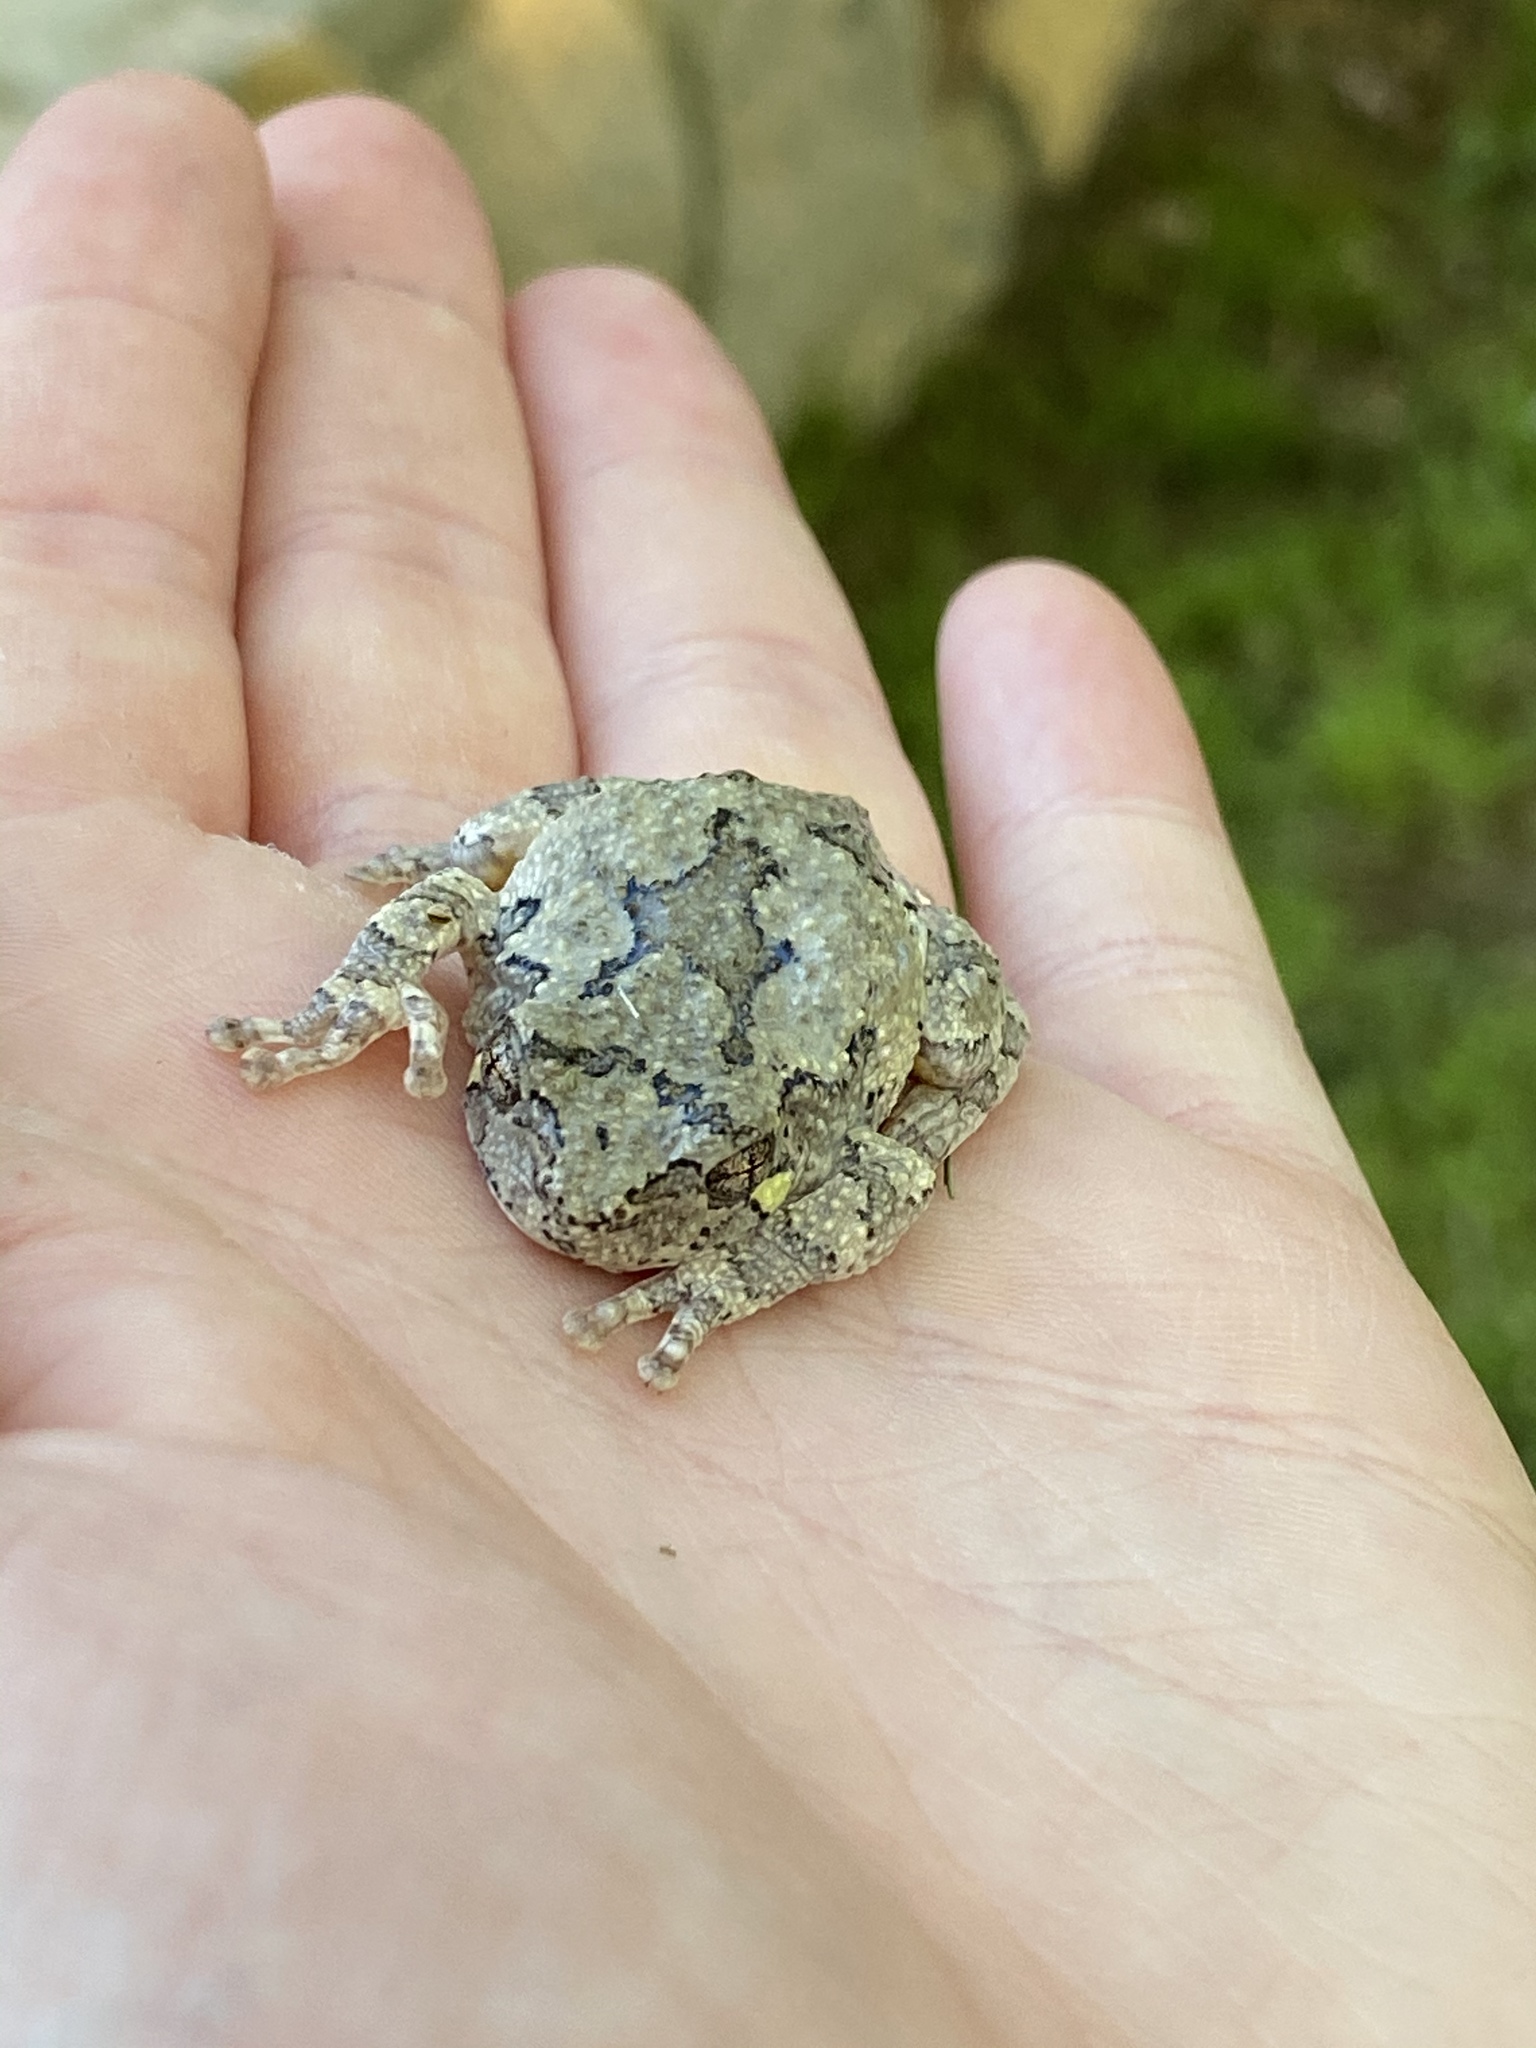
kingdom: Animalia
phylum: Chordata
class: Amphibia
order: Anura
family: Hylidae
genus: Dryophytes
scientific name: Dryophytes chrysoscelis
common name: Cope's gray treefrog
